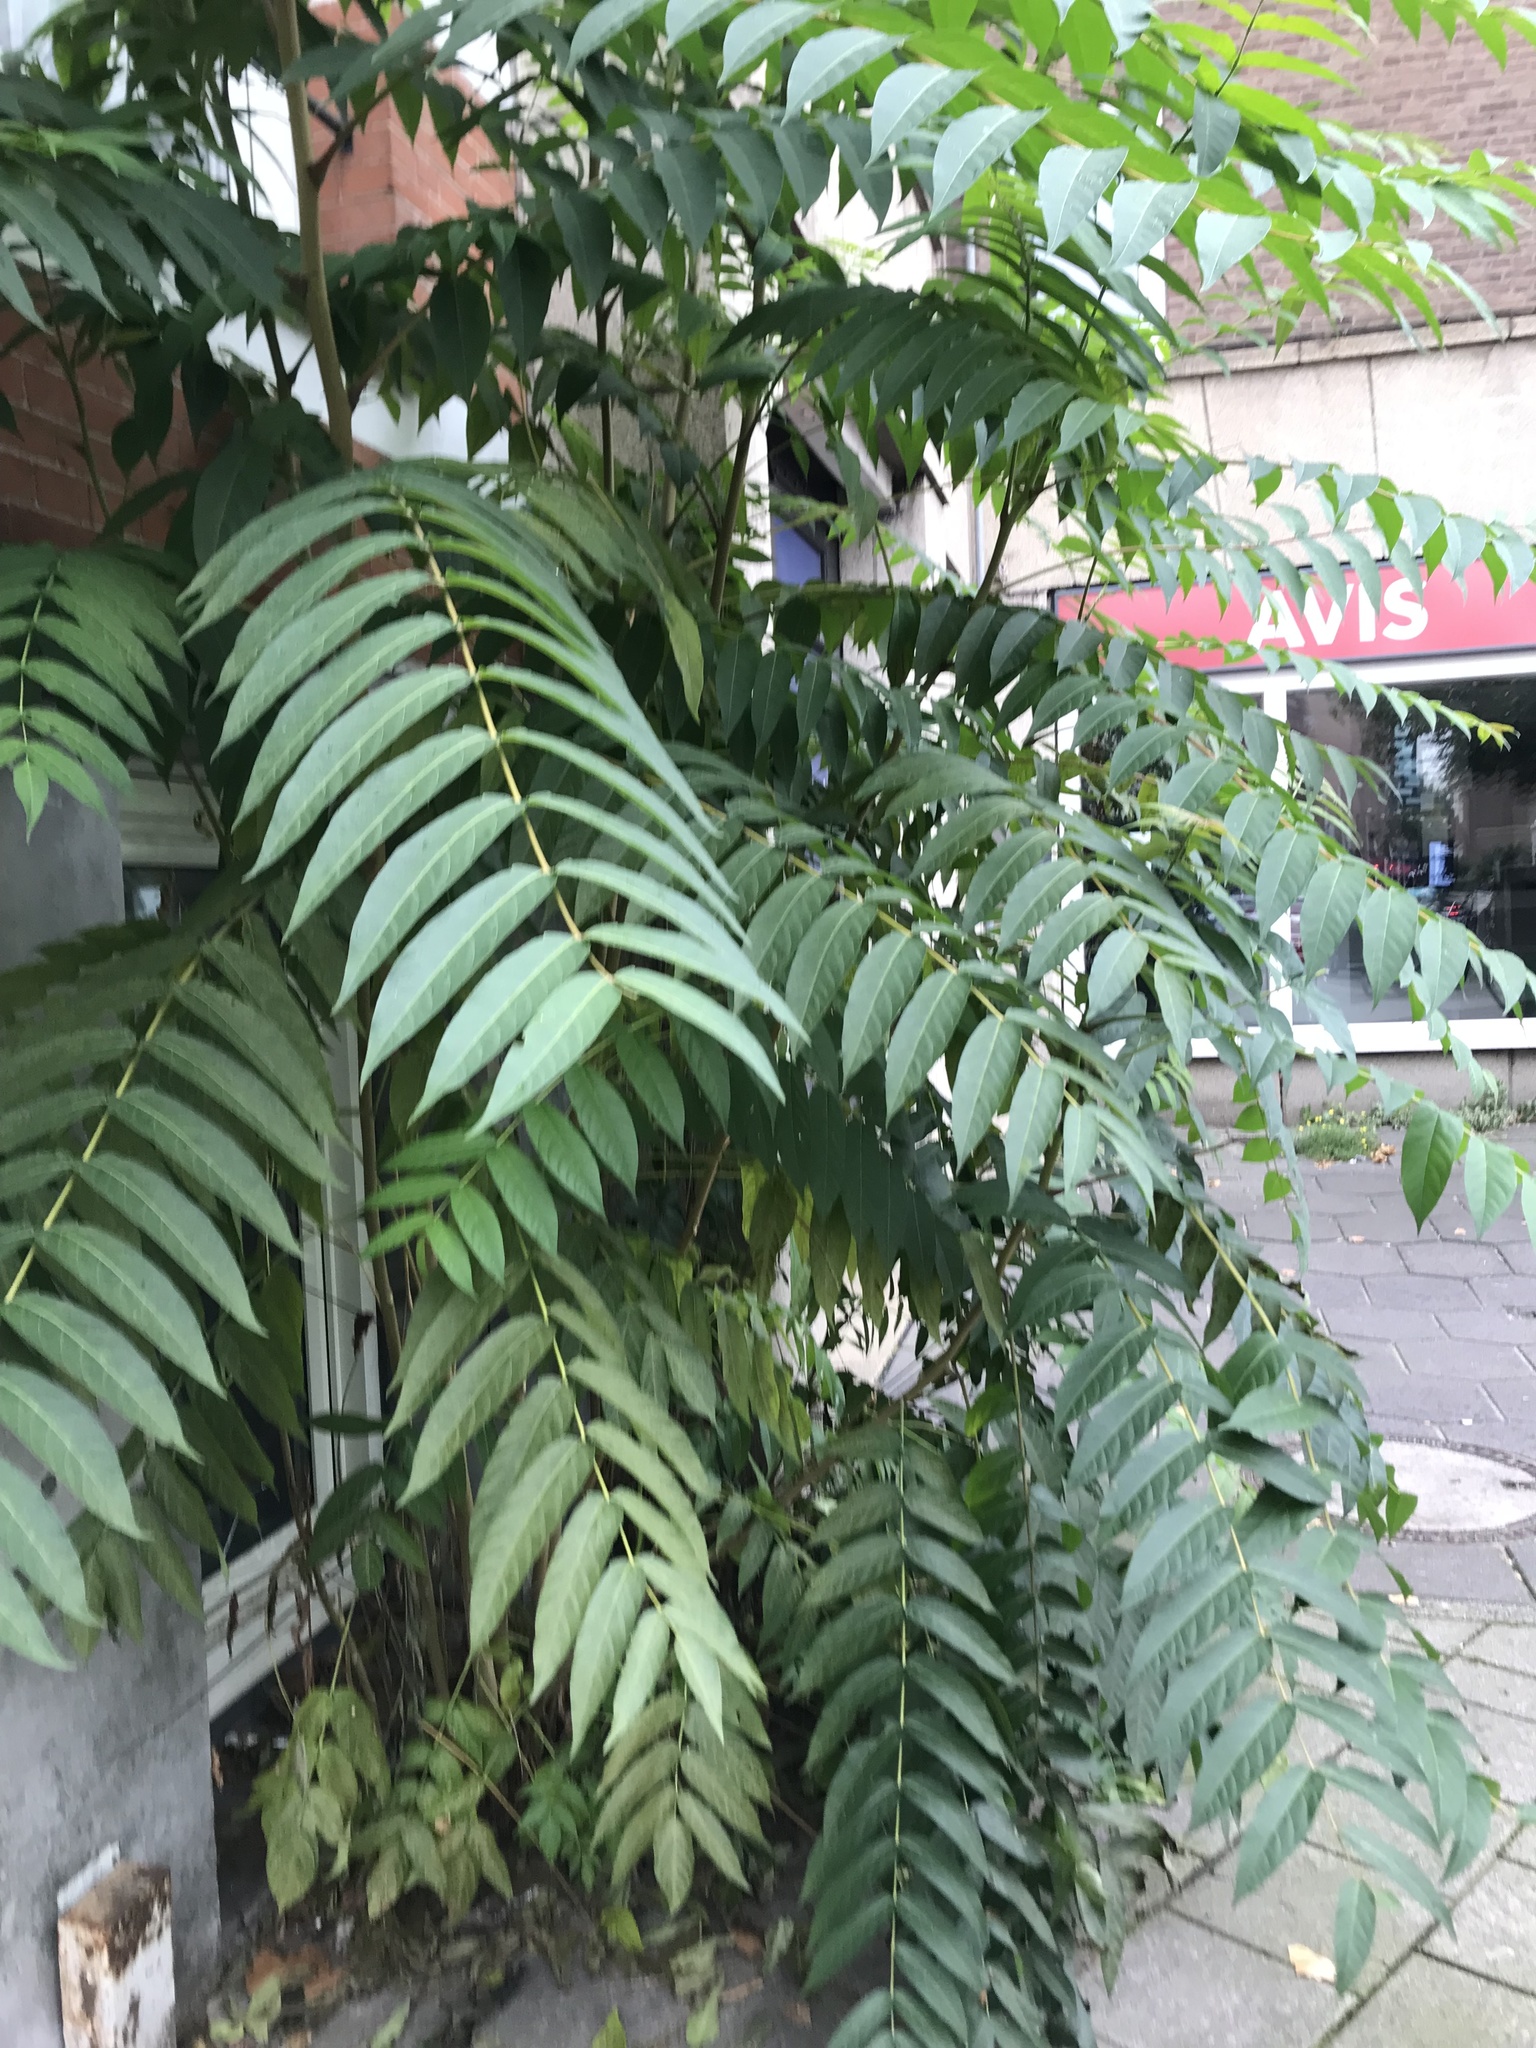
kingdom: Plantae
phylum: Tracheophyta
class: Magnoliopsida
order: Sapindales
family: Simaroubaceae
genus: Ailanthus
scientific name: Ailanthus altissima
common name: Tree-of-heaven
